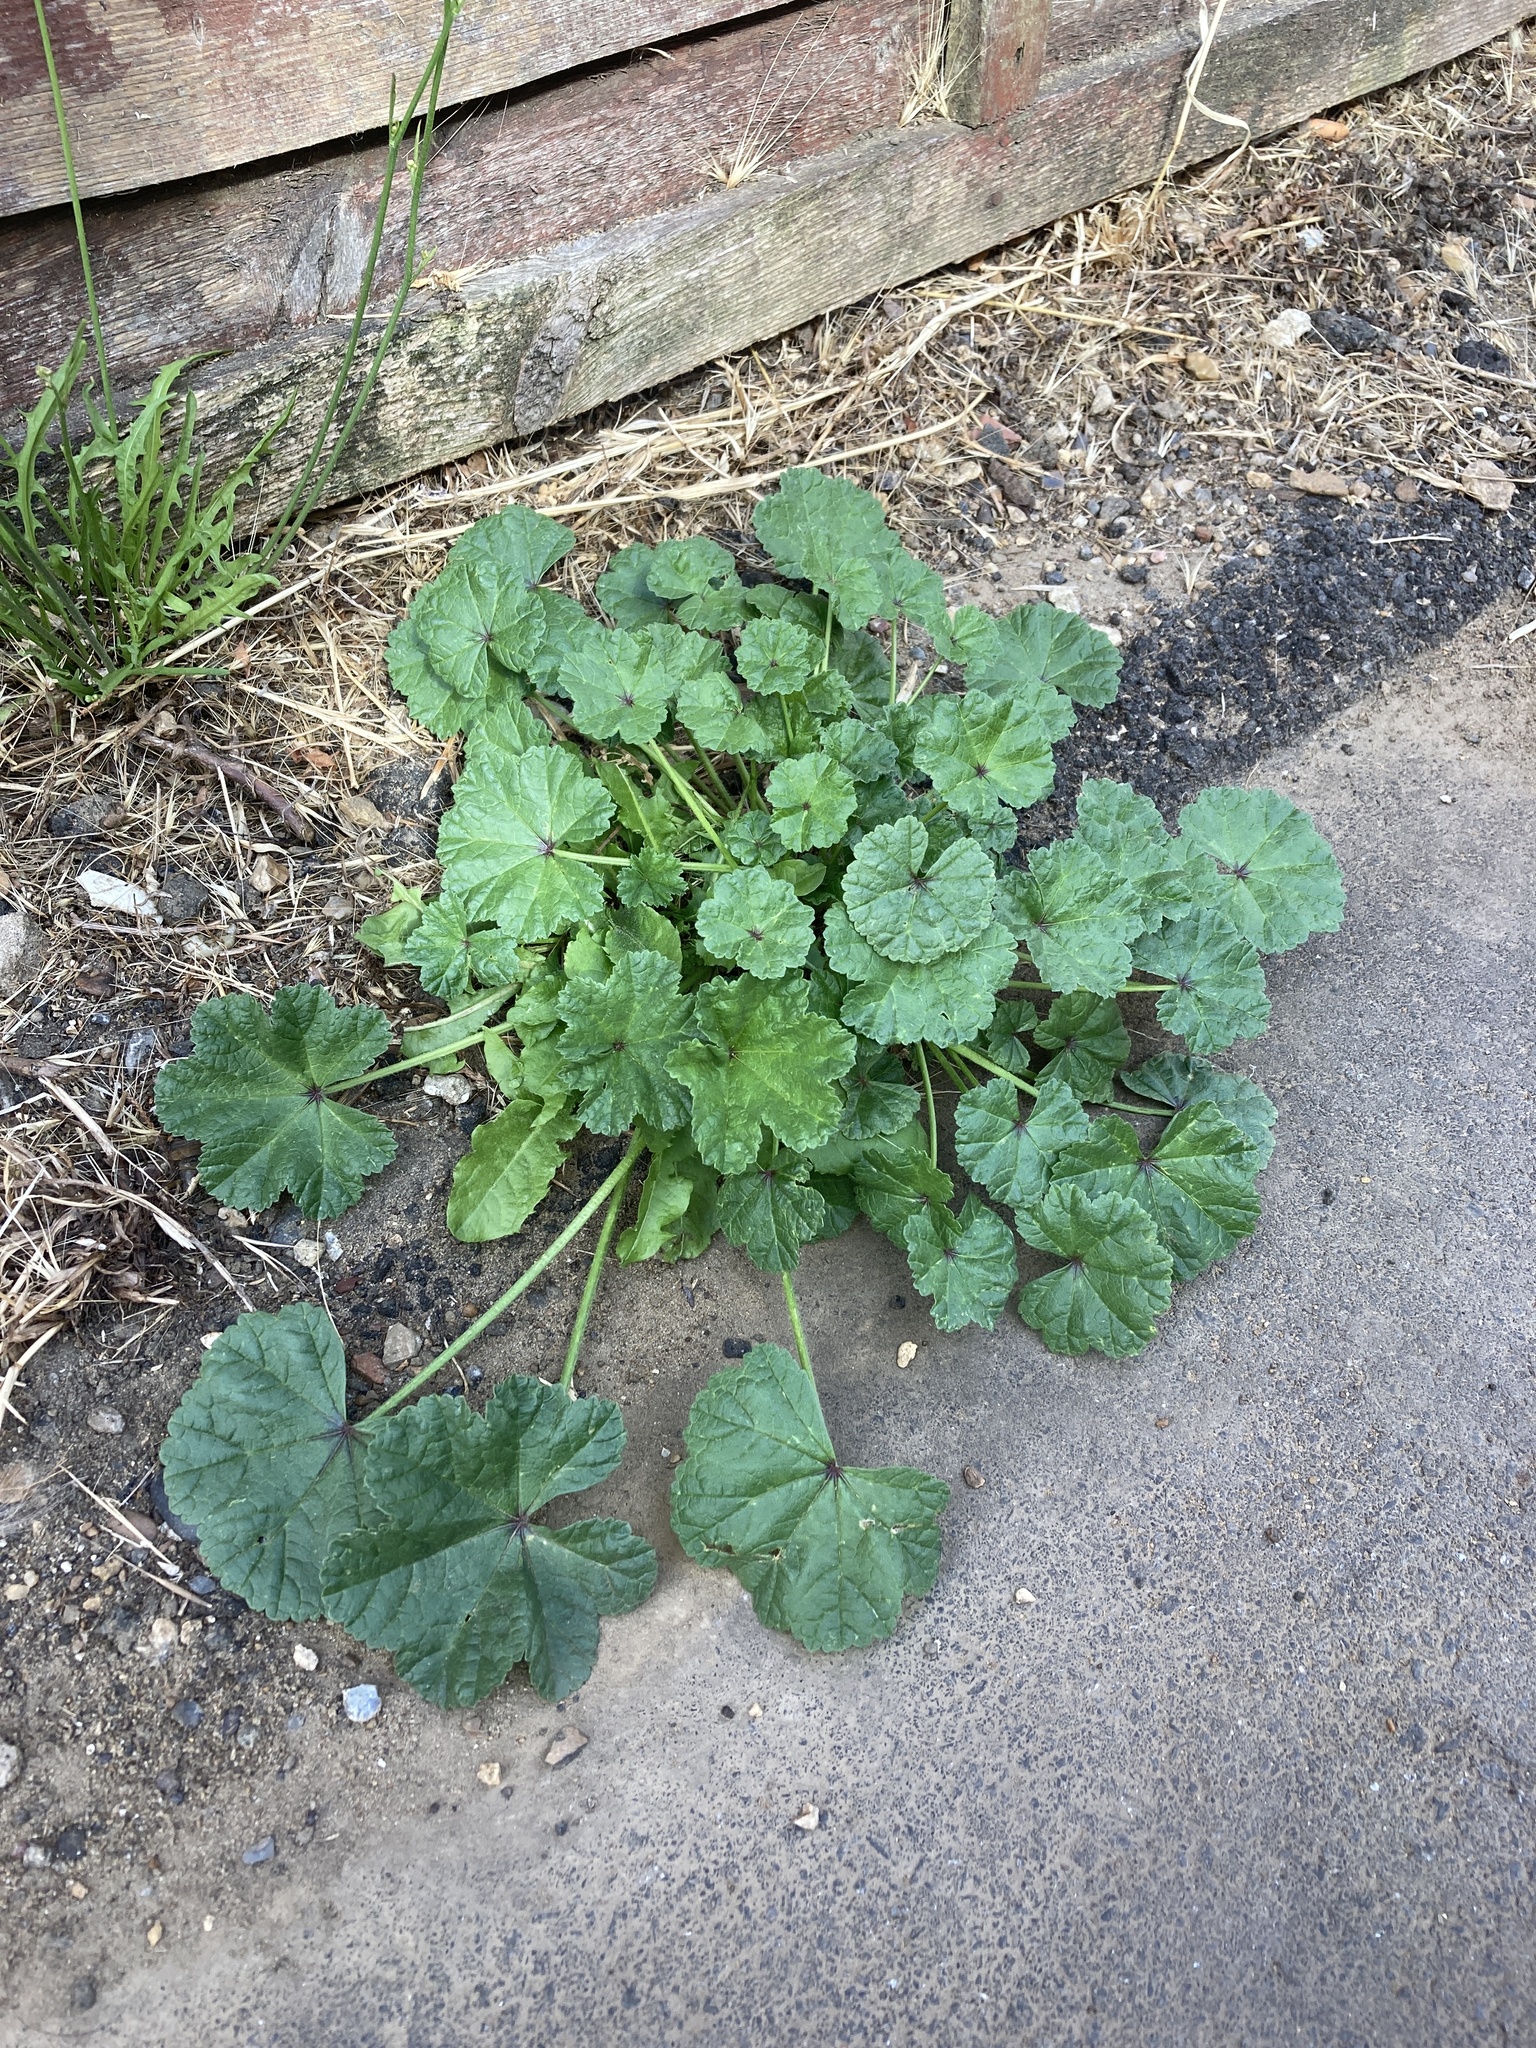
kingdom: Plantae
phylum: Tracheophyta
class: Magnoliopsida
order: Malvales
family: Malvaceae
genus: Malva
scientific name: Malva sylvestris
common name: Common mallow
